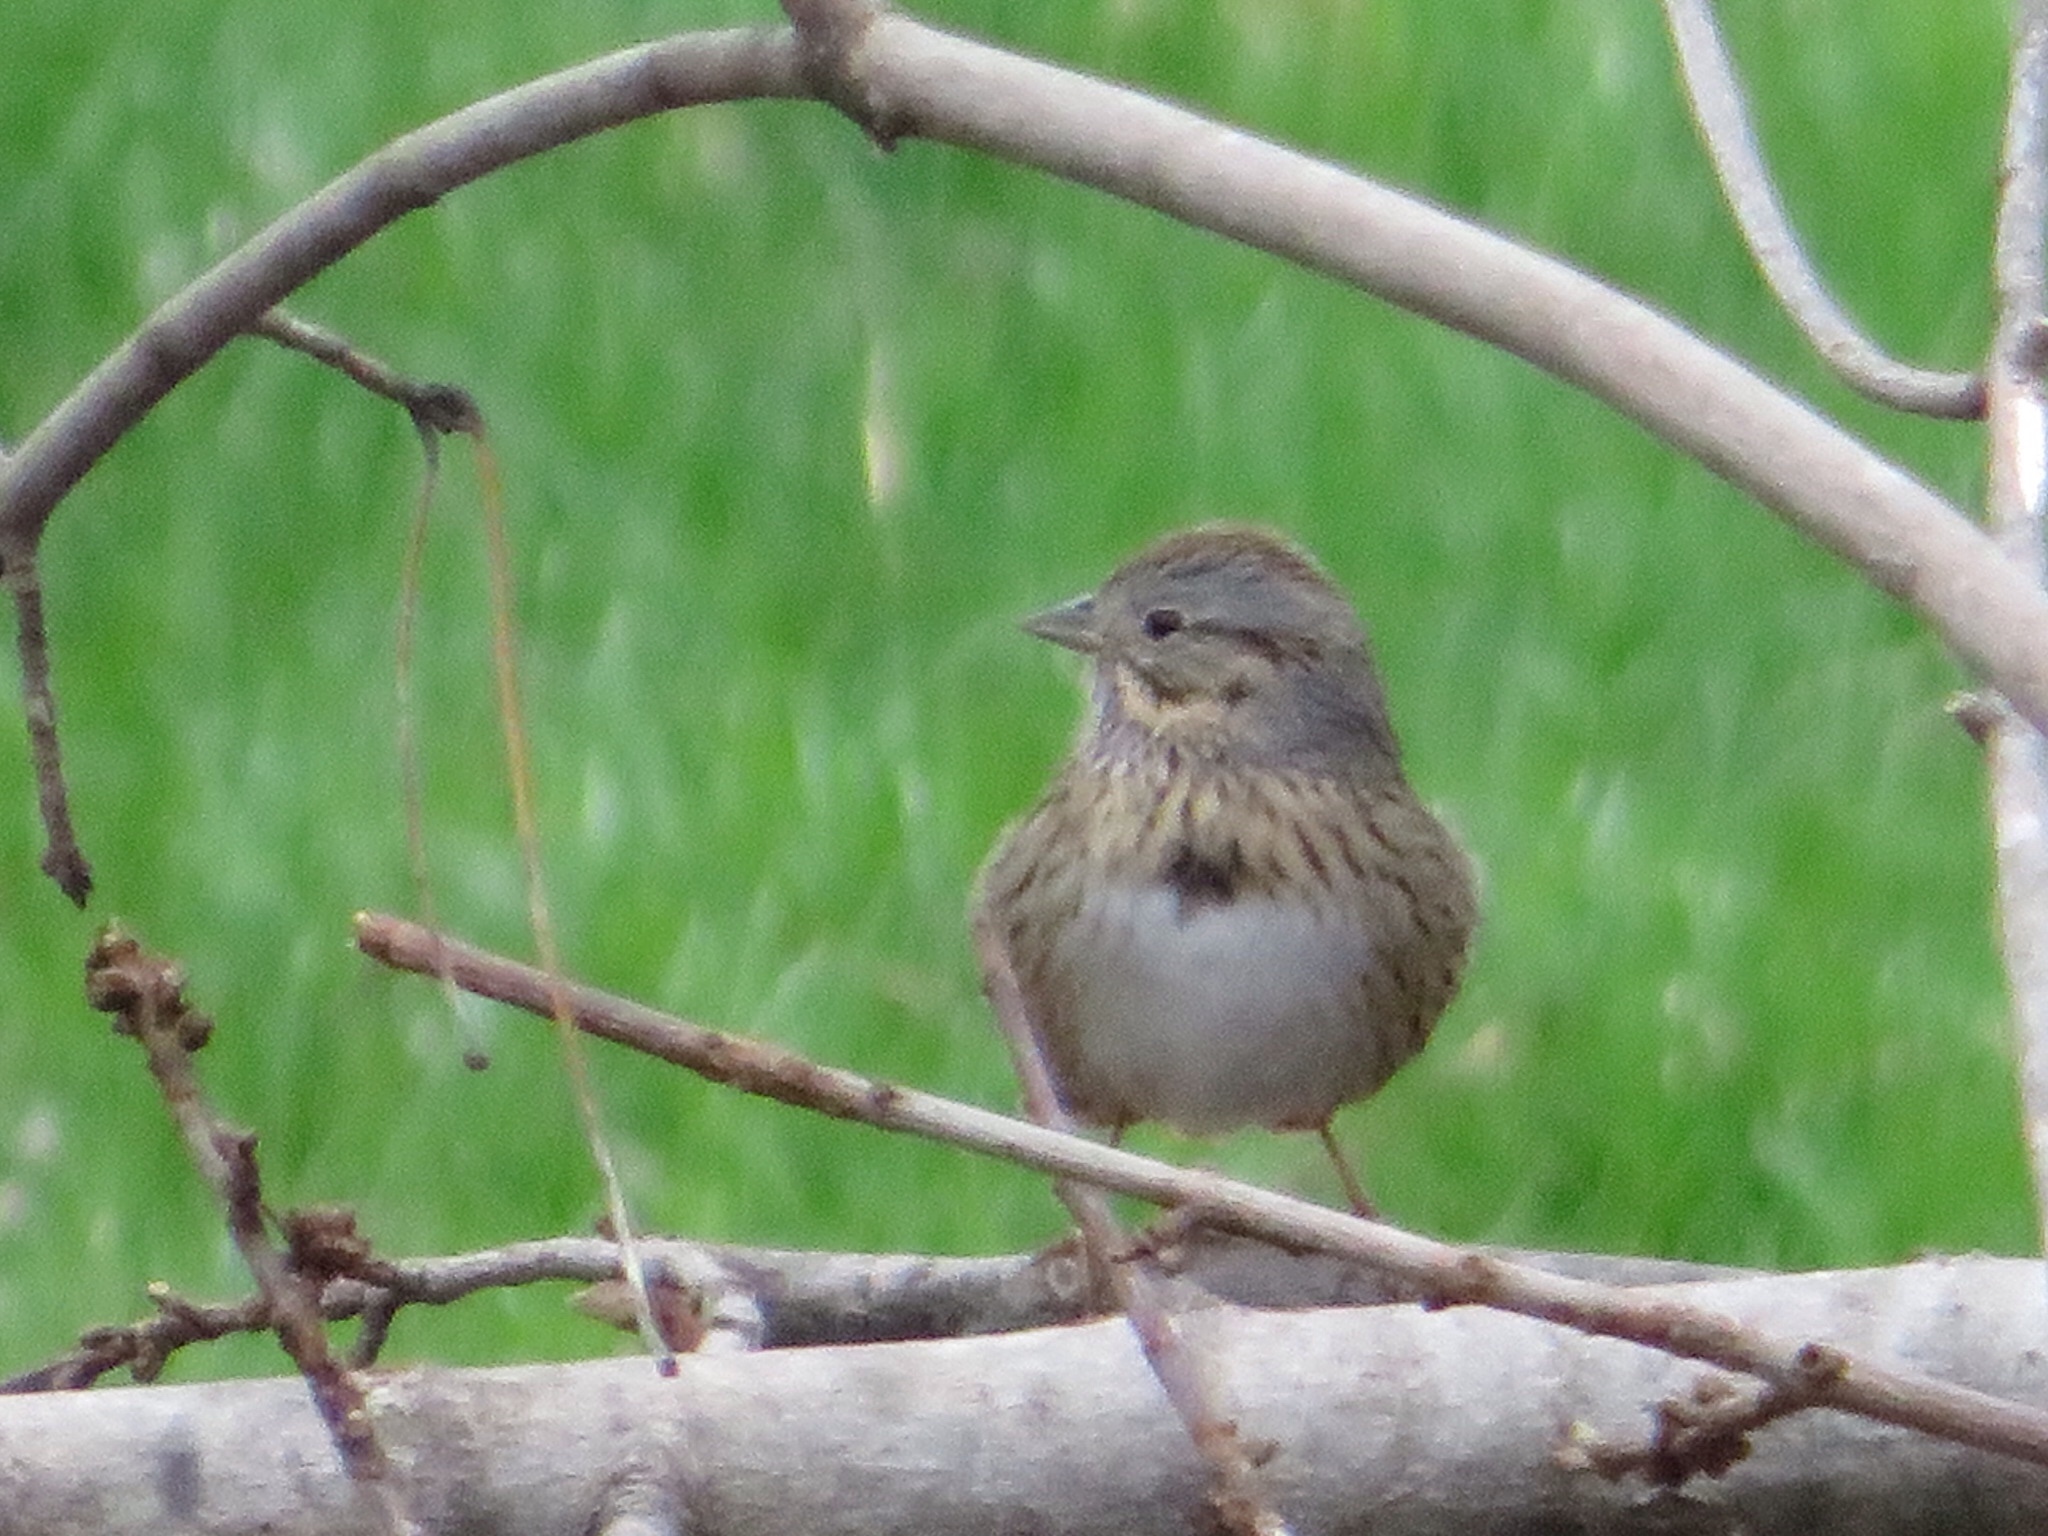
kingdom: Animalia
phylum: Chordata
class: Aves
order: Passeriformes
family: Passerellidae
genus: Melospiza
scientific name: Melospiza lincolnii
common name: Lincoln's sparrow
